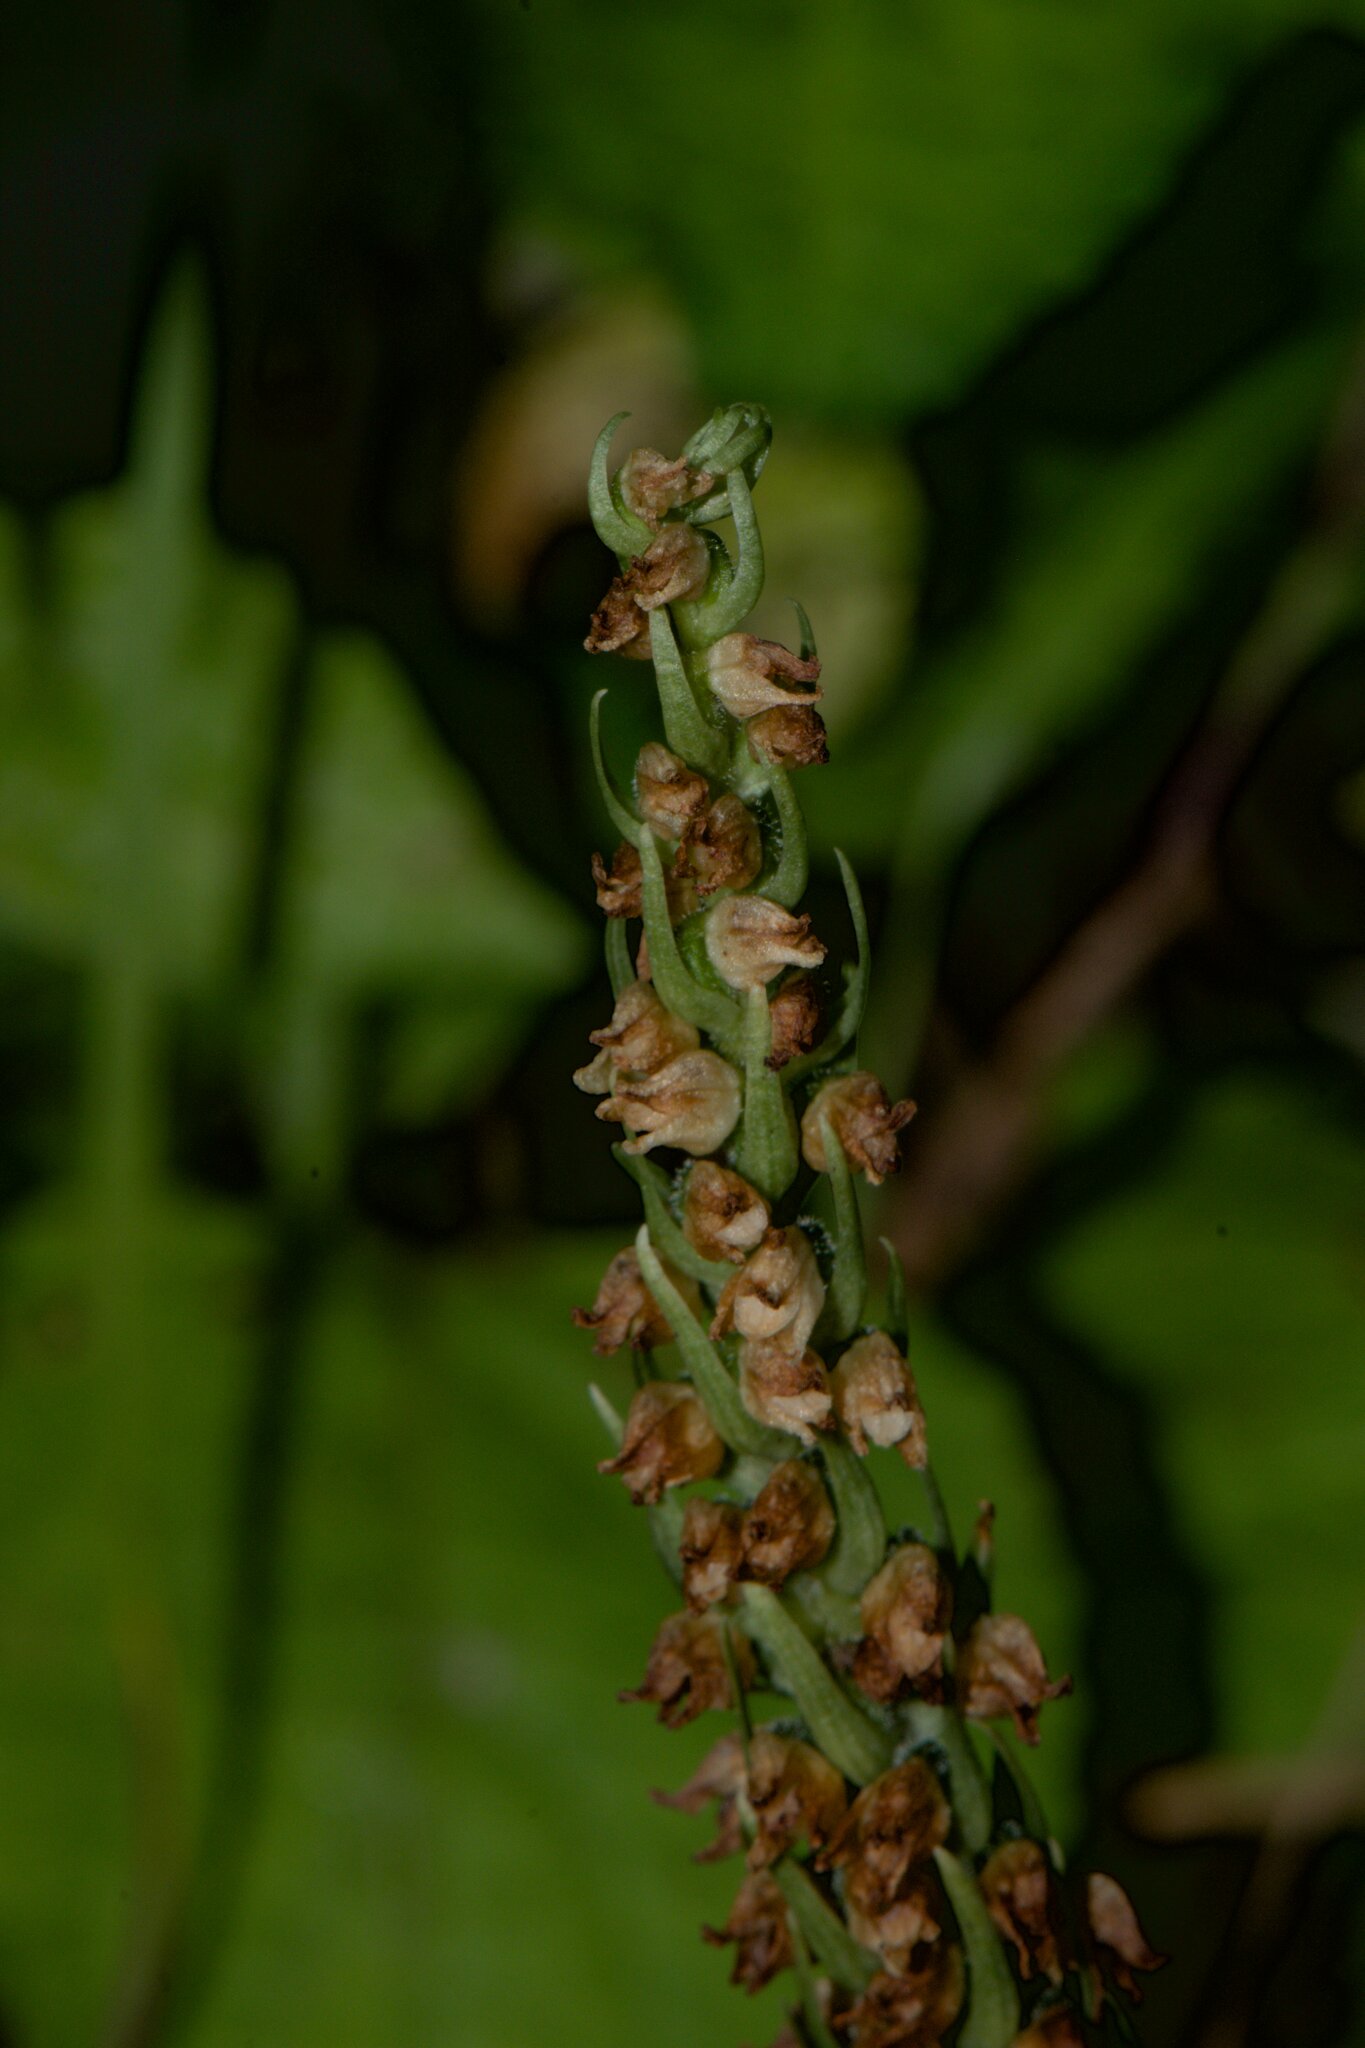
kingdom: Plantae
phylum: Tracheophyta
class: Liliopsida
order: Asparagales
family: Orchidaceae
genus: Goodyera
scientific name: Goodyera repens
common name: Creeping lady's-tresses
